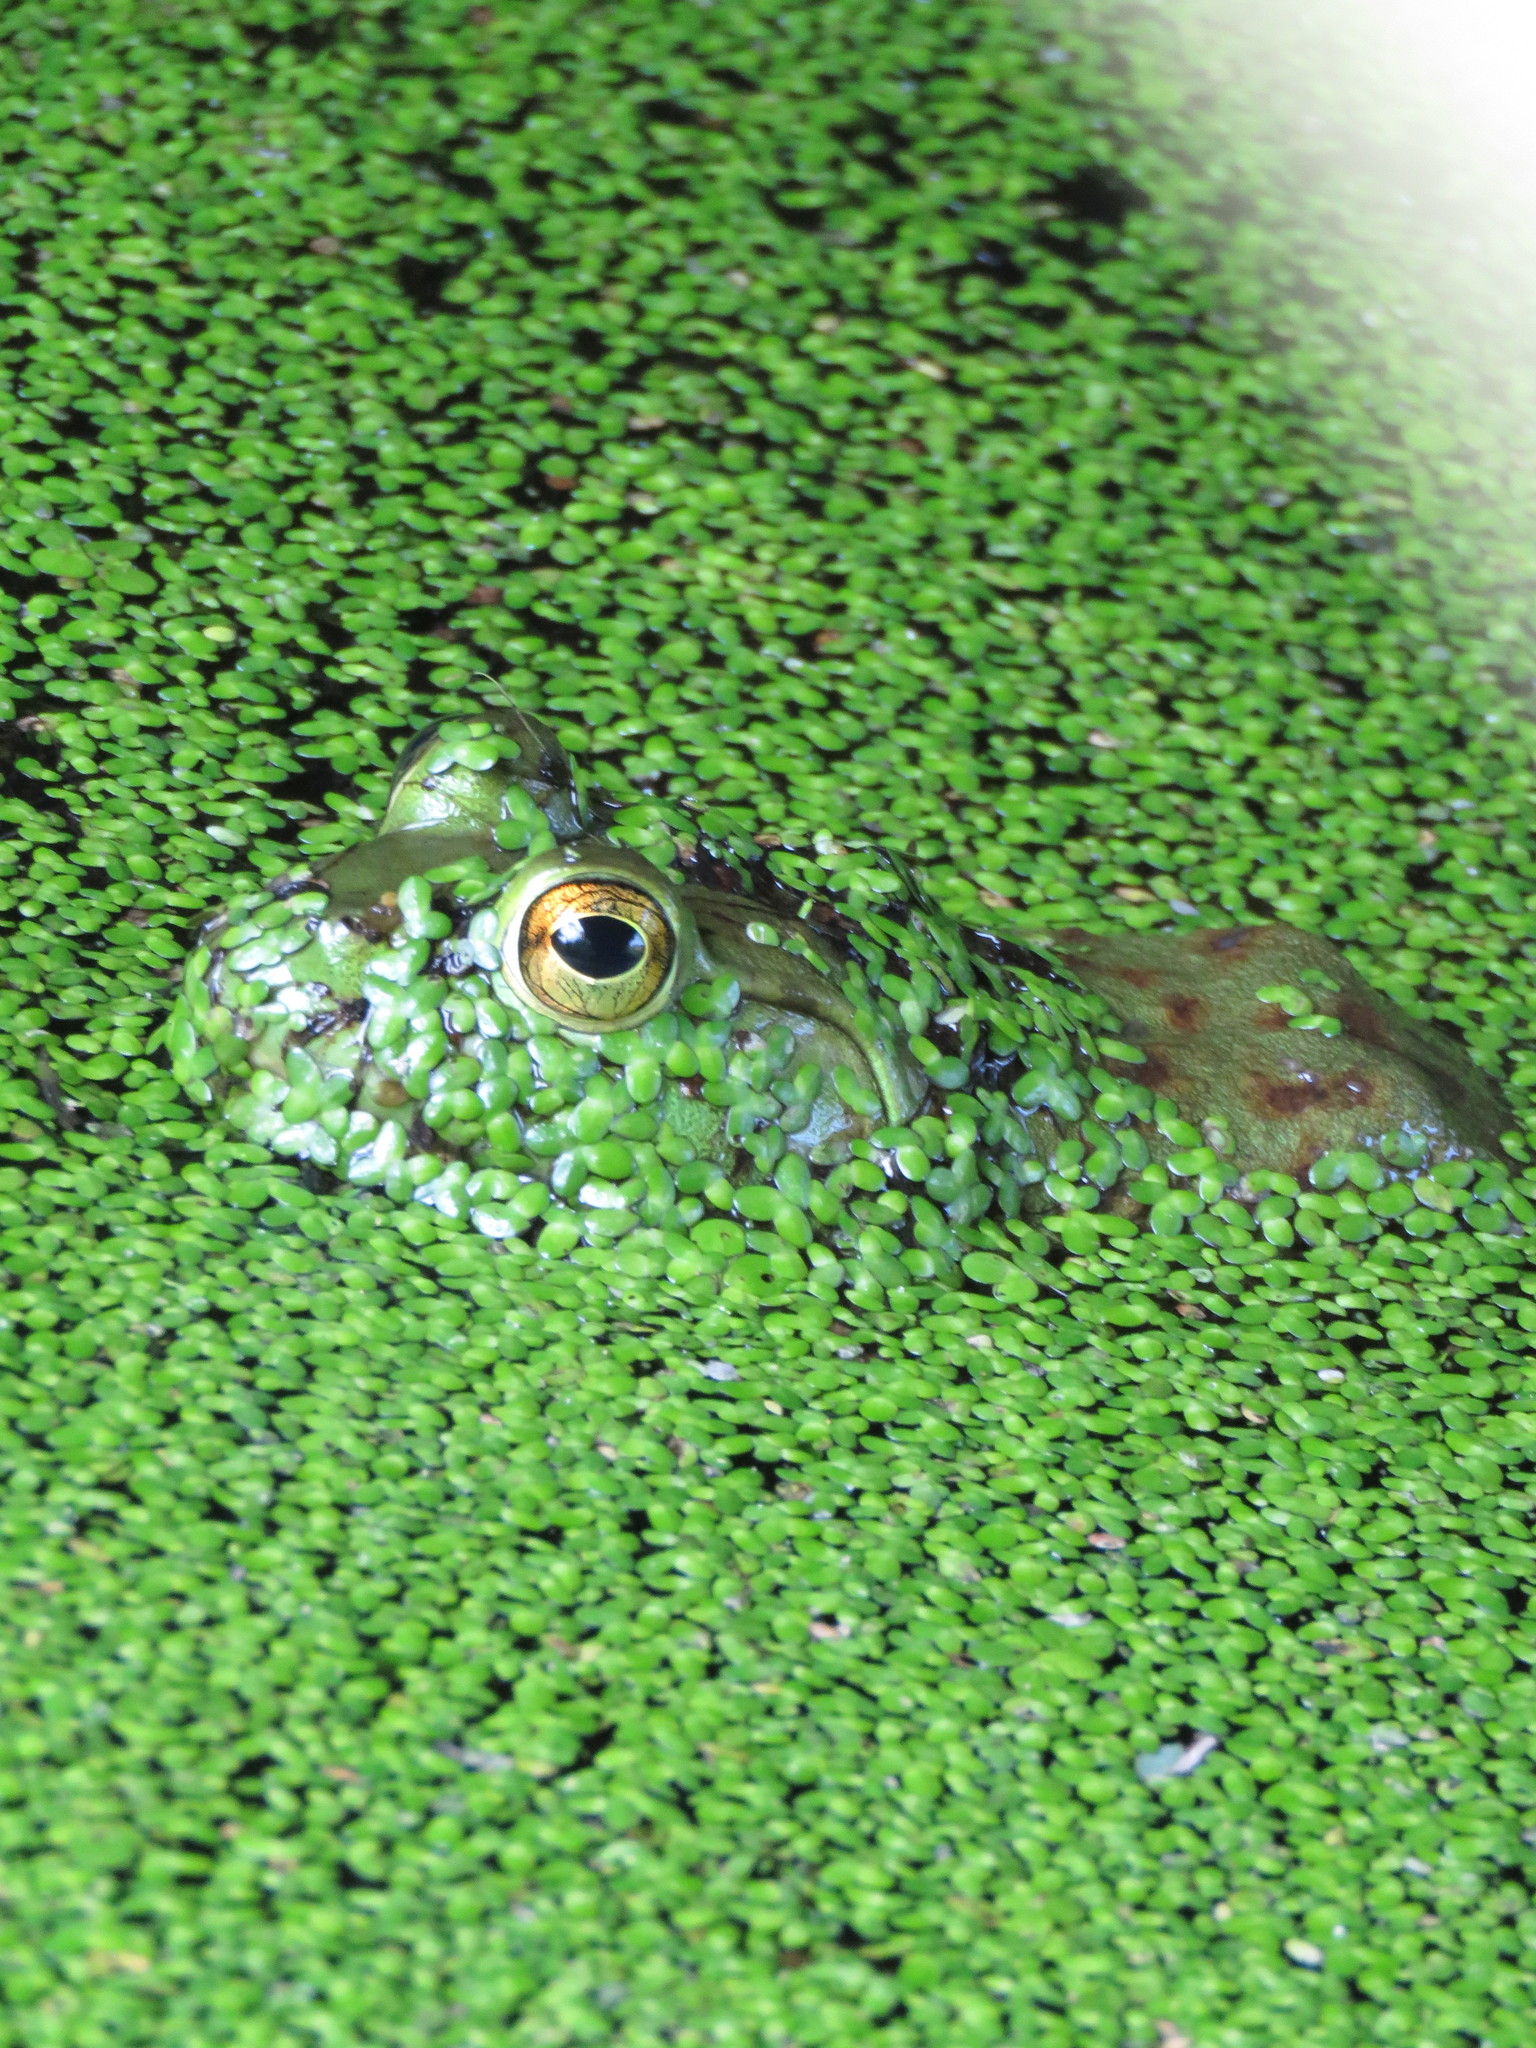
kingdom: Animalia
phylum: Chordata
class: Amphibia
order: Anura
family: Ranidae
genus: Lithobates
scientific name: Lithobates catesbeianus
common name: American bullfrog
